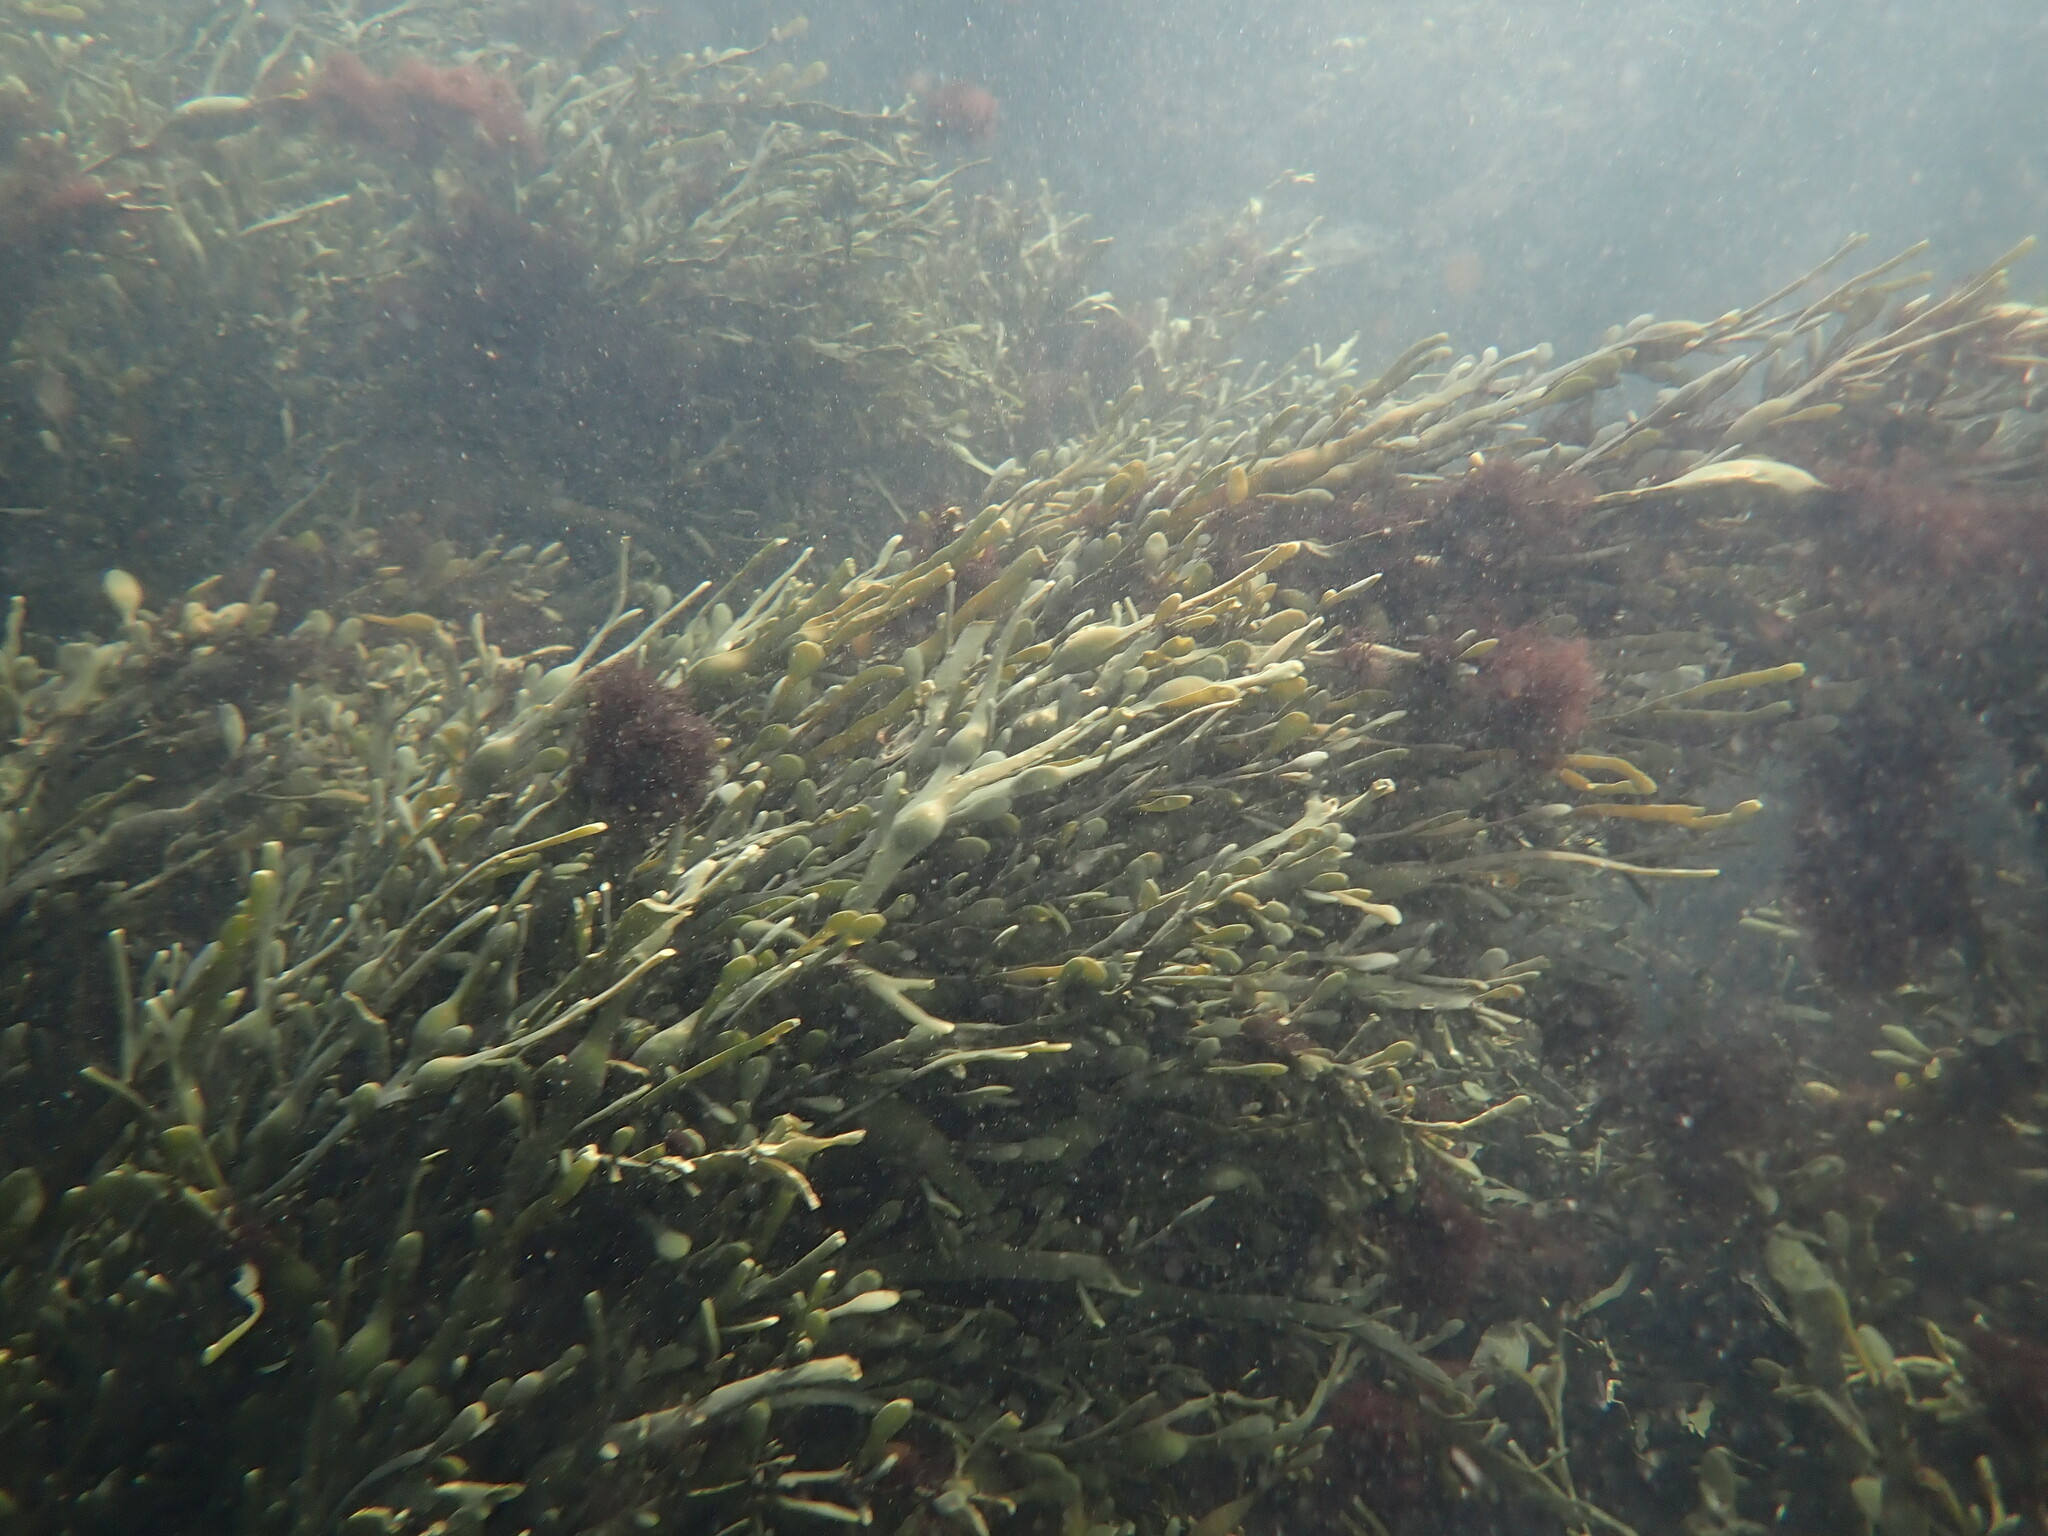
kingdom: Chromista
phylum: Ochrophyta
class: Phaeophyceae
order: Fucales
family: Fucaceae
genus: Ascophyllum
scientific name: Ascophyllum nodosum
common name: Knotted wrack
